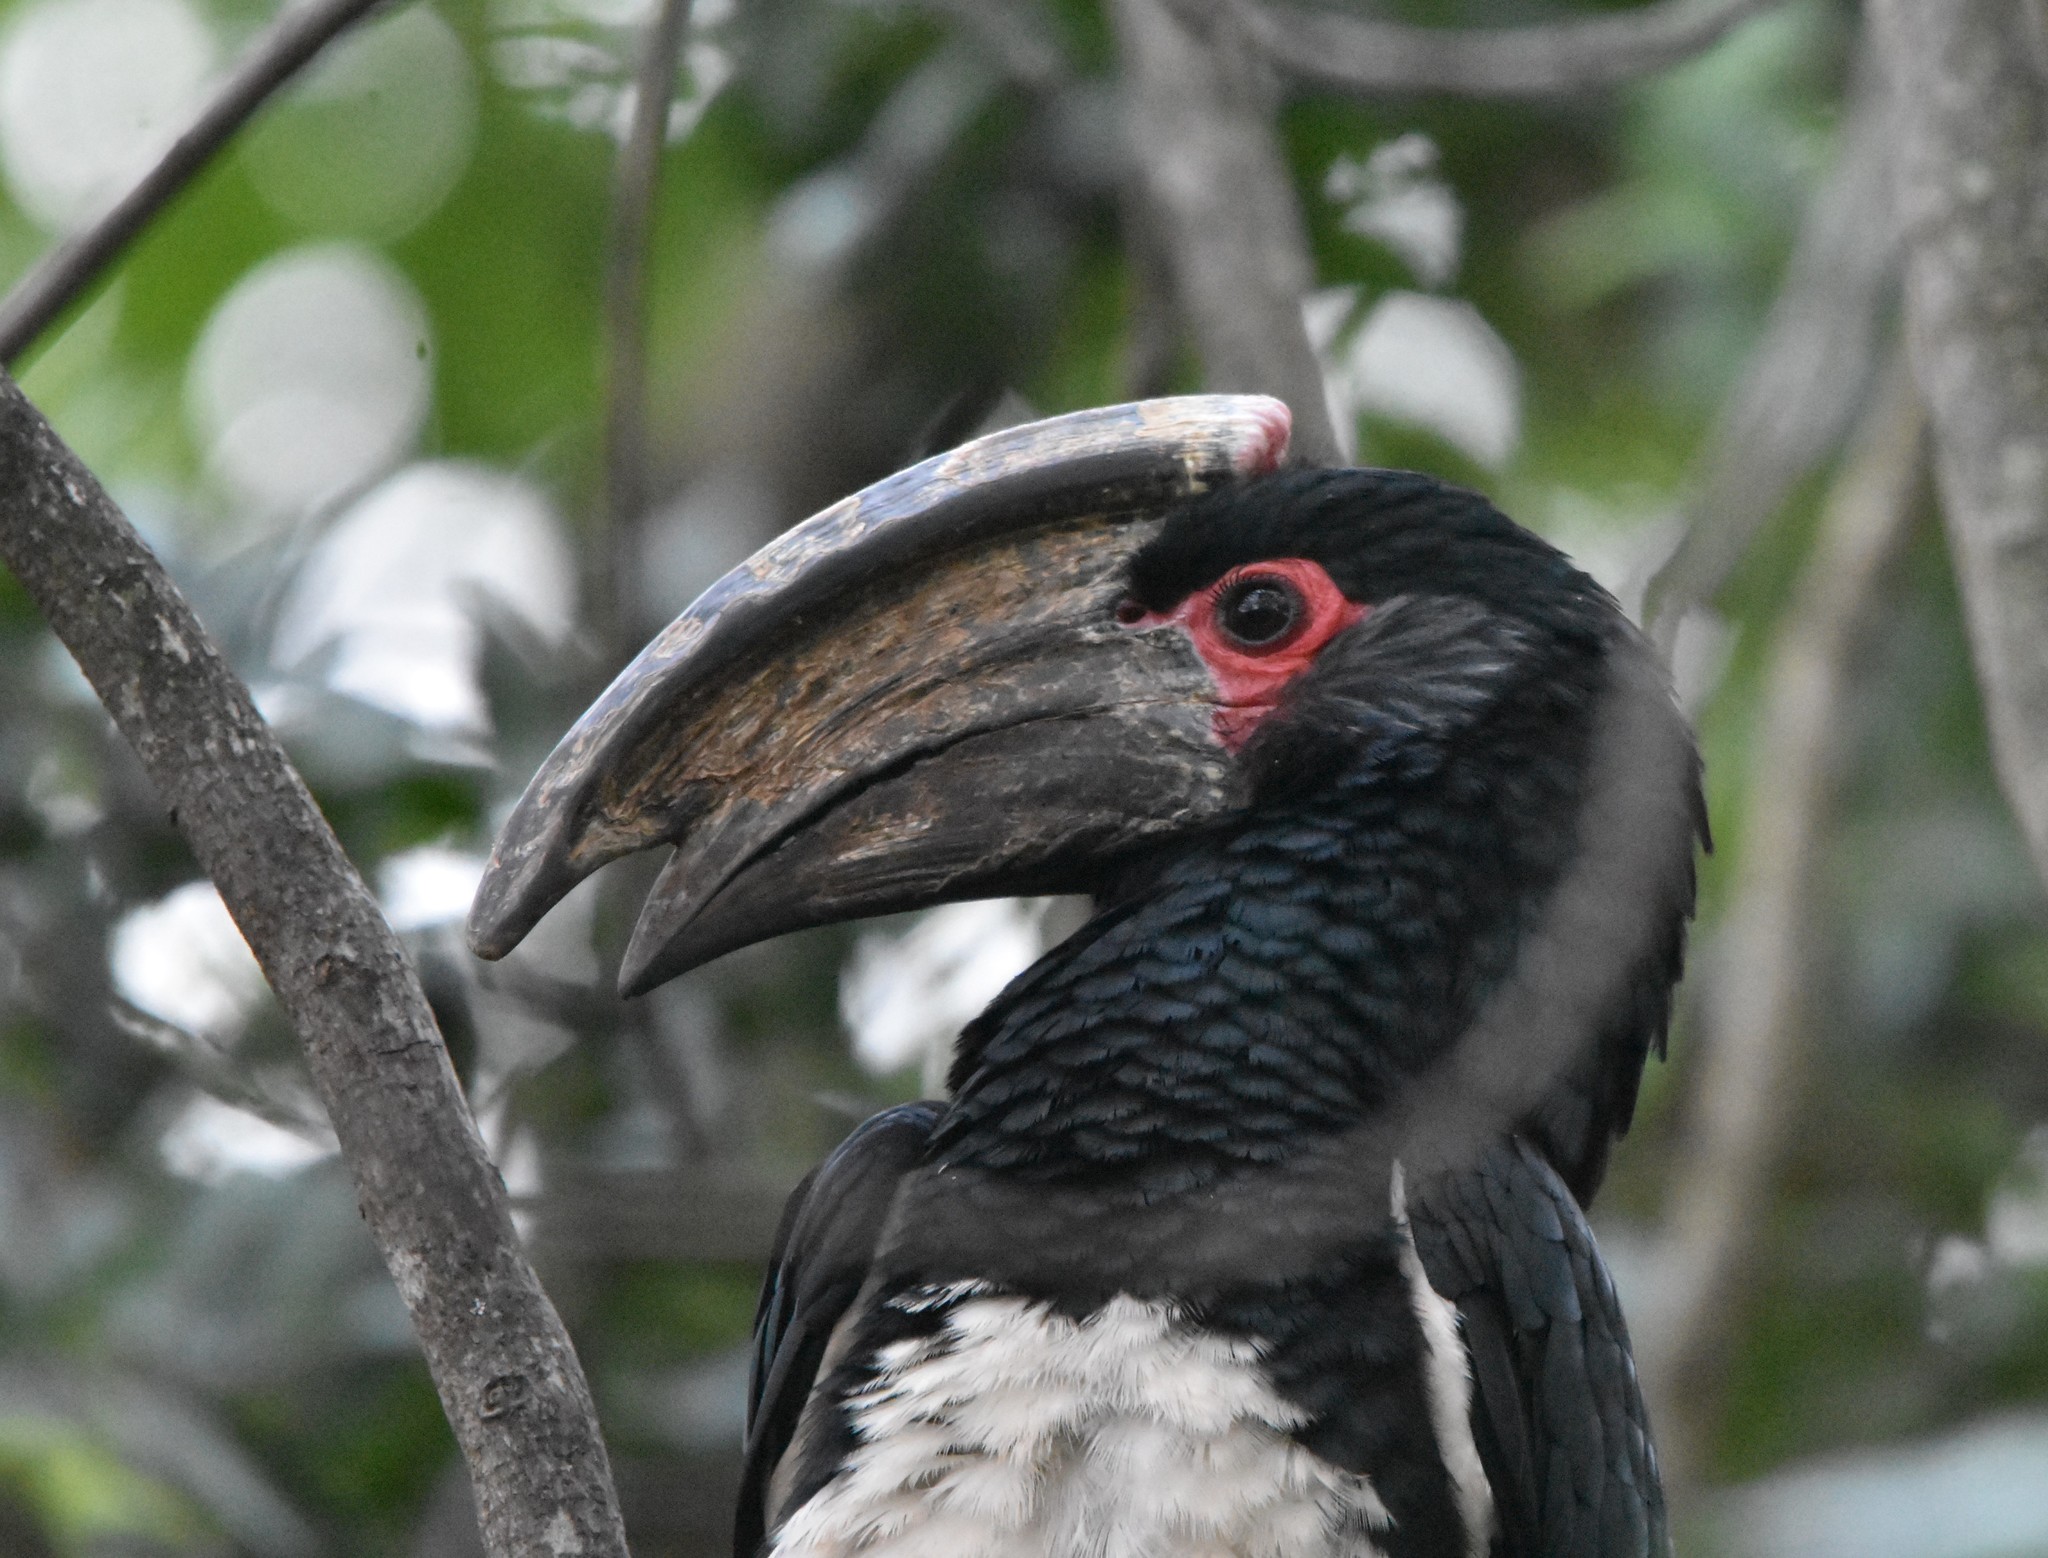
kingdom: Animalia
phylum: Chordata
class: Aves
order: Bucerotiformes
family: Bucerotidae
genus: Bycanistes
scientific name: Bycanistes bucinator
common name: Trumpeter hornbill
